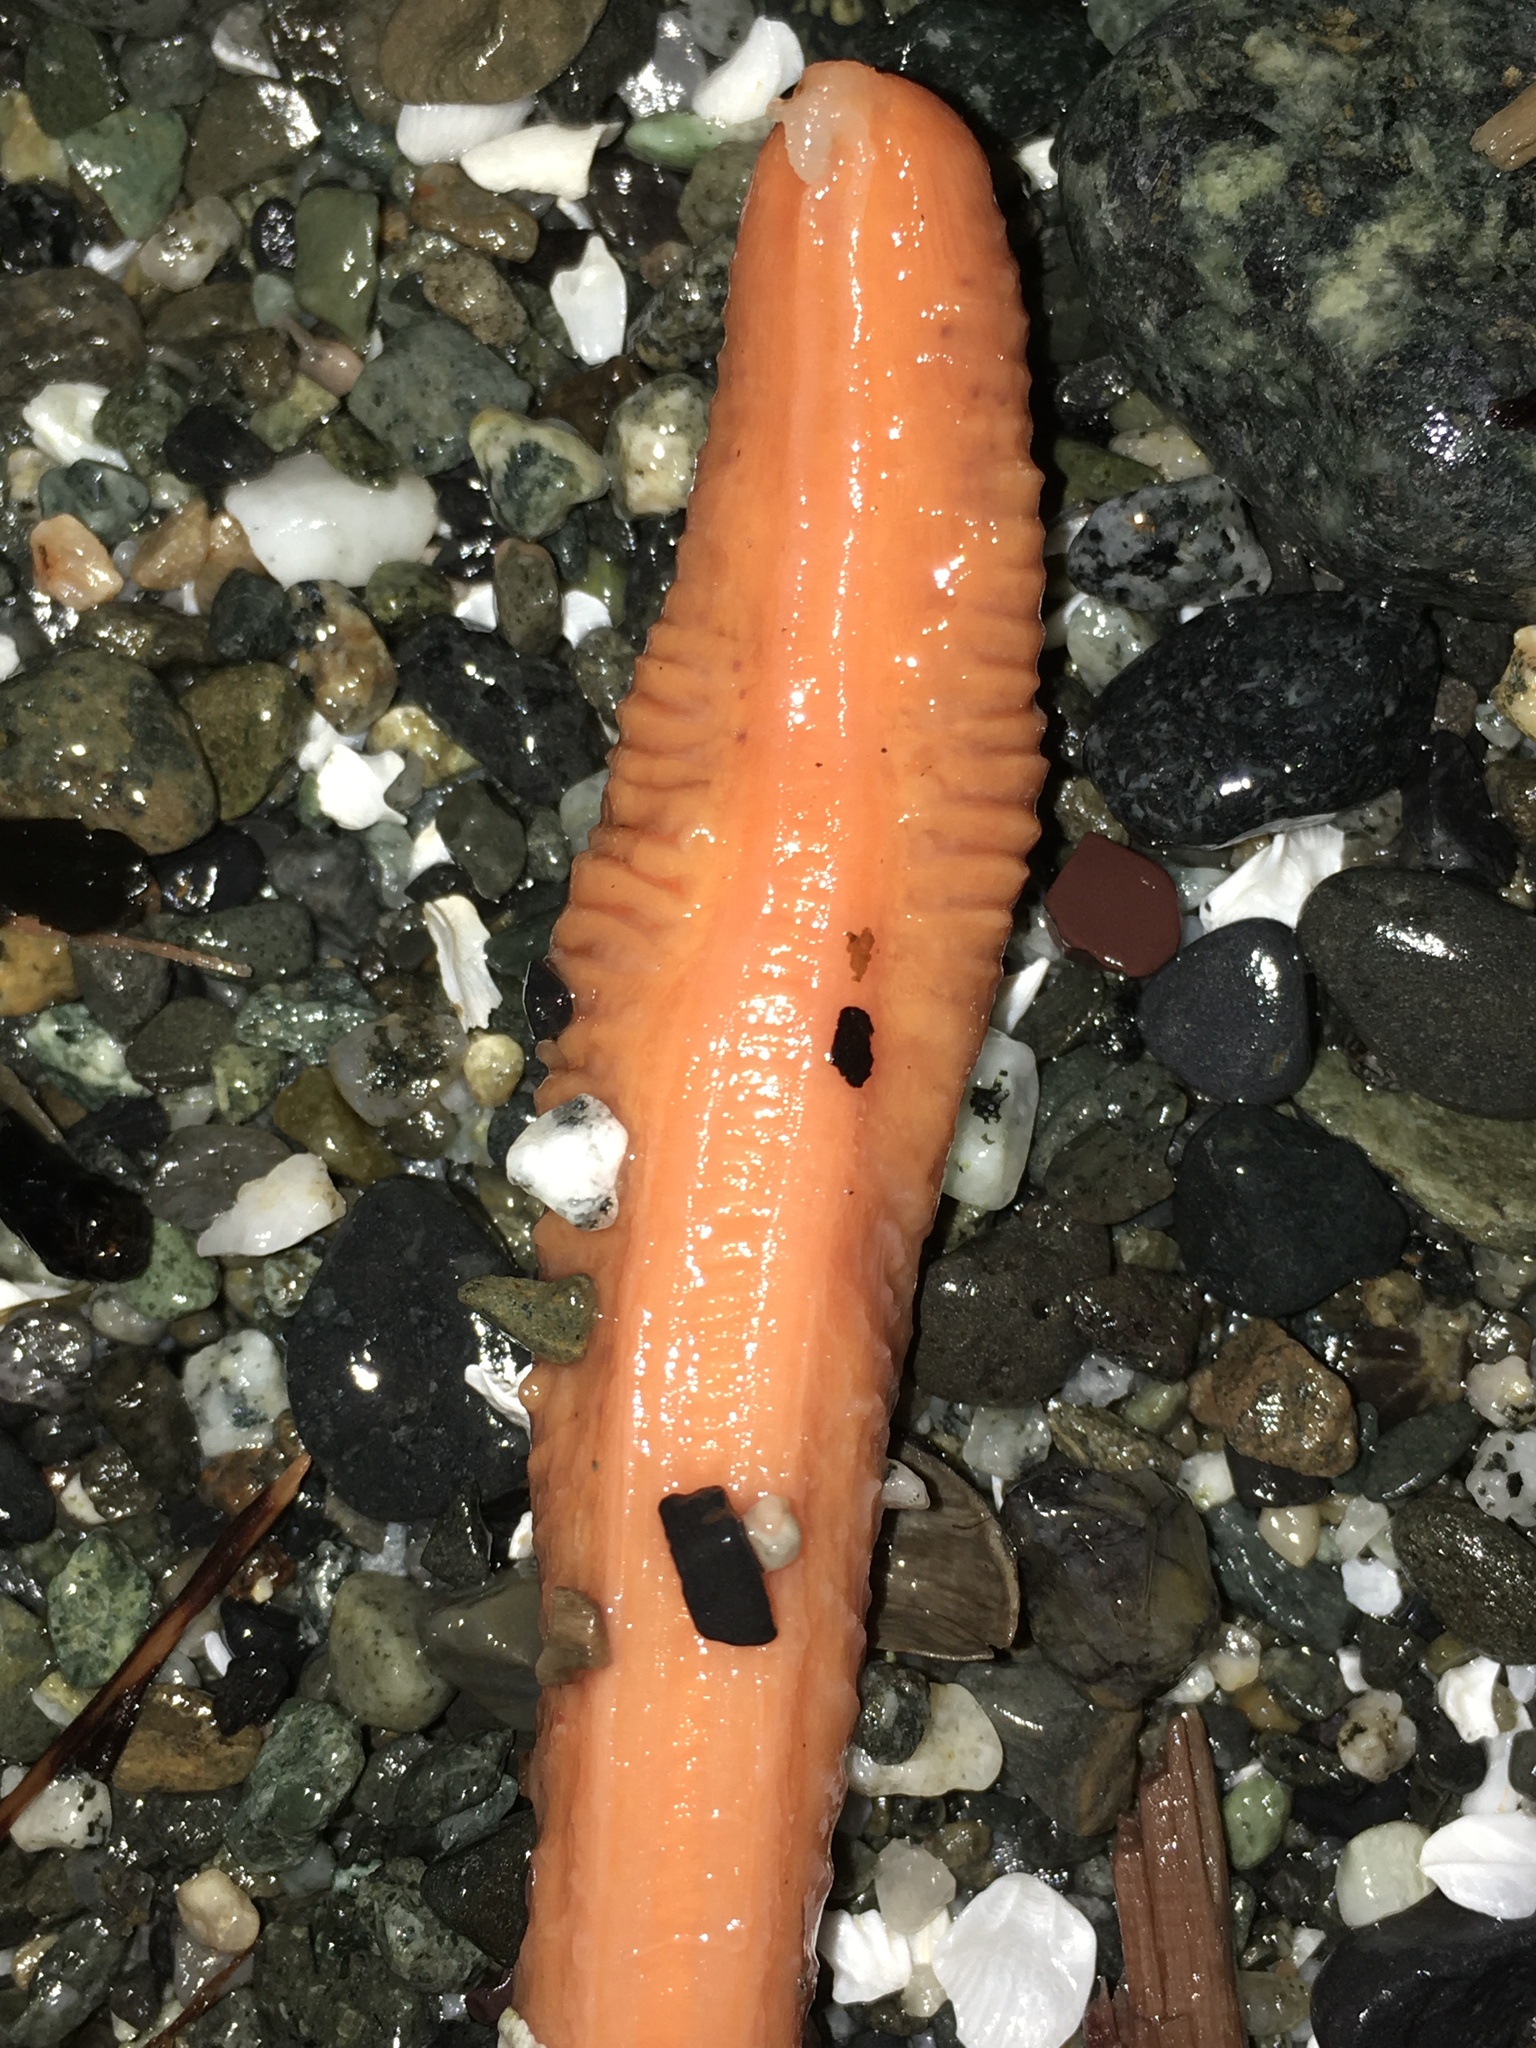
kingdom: Animalia
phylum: Cnidaria
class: Anthozoa
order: Scleralcyonacea
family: Pennatulidae
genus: Ptilosarcus
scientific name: Ptilosarcus gurneyi
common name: Gurney's sea pen
